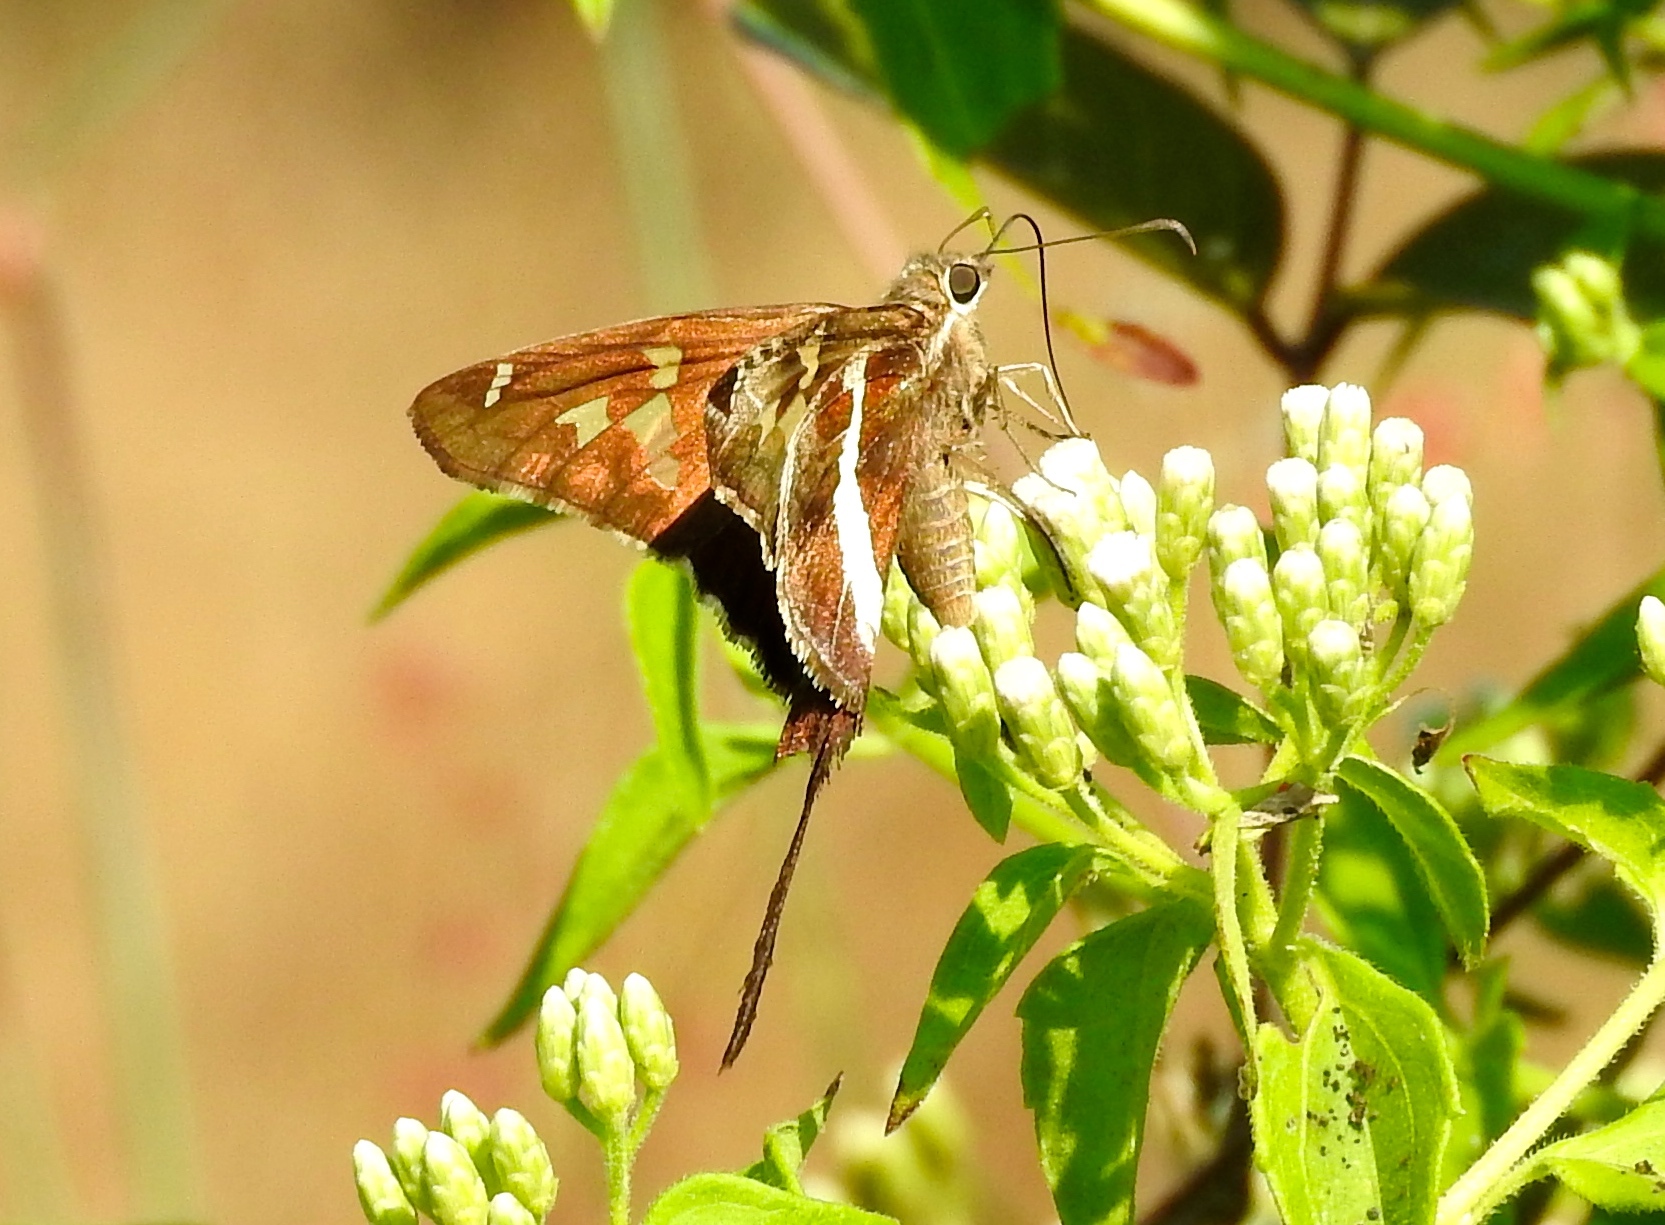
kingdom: Animalia
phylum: Arthropoda
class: Insecta
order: Lepidoptera
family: Hesperiidae
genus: Chioides
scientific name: Chioides catillus
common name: Silverbanded skipper
